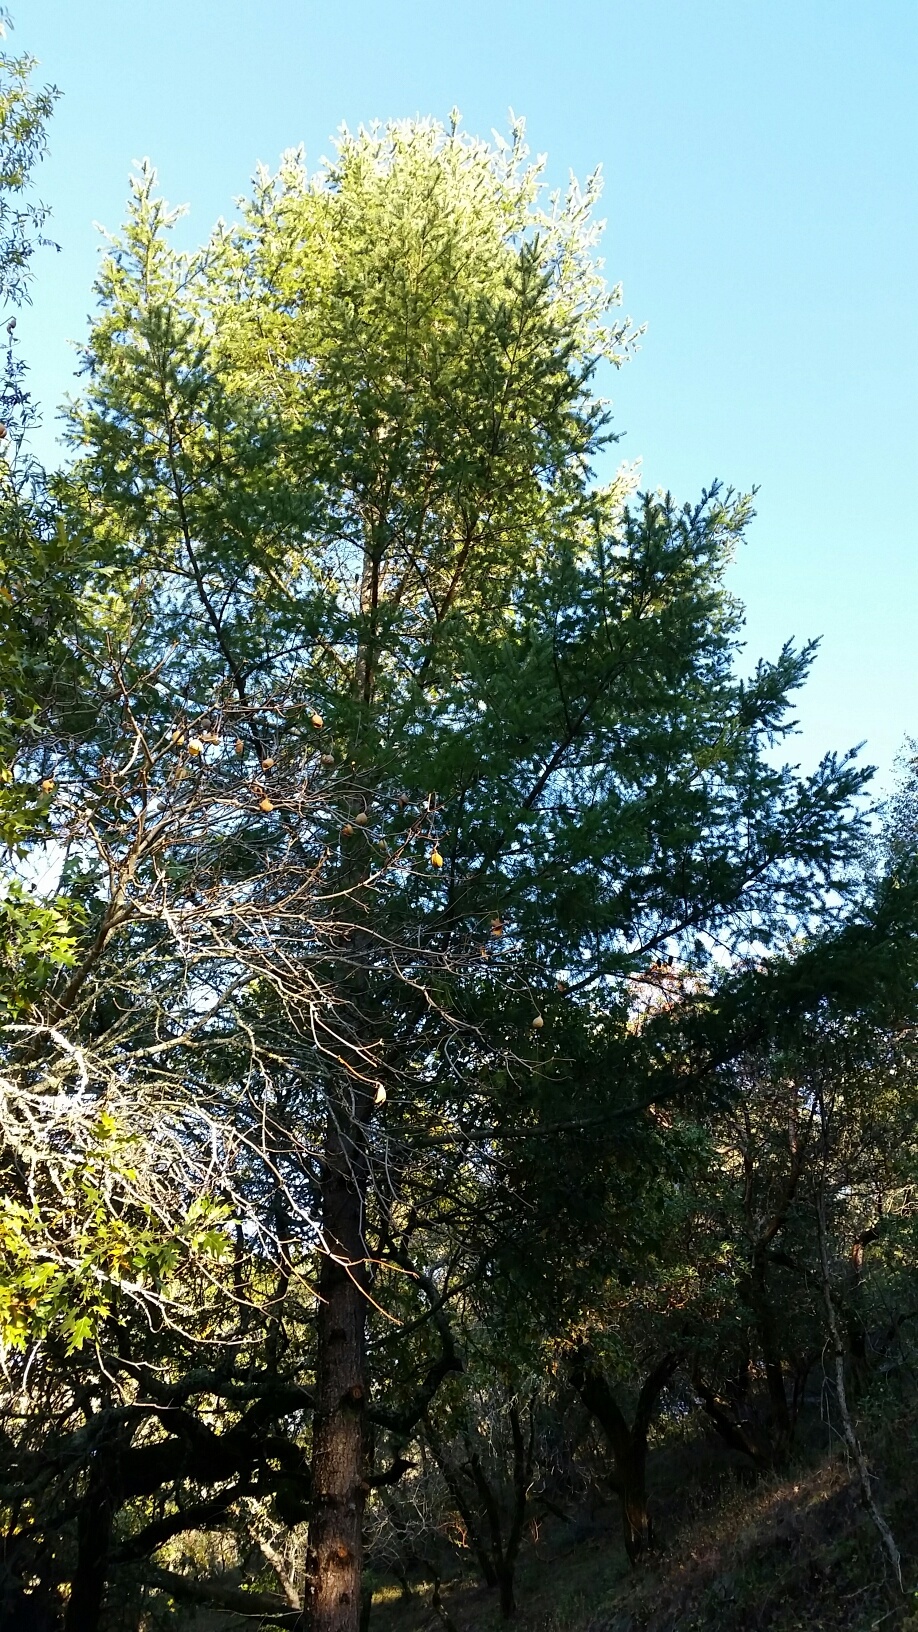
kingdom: Plantae
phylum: Tracheophyta
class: Pinopsida
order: Pinales
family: Pinaceae
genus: Pseudotsuga
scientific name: Pseudotsuga menziesii
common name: Douglas fir
